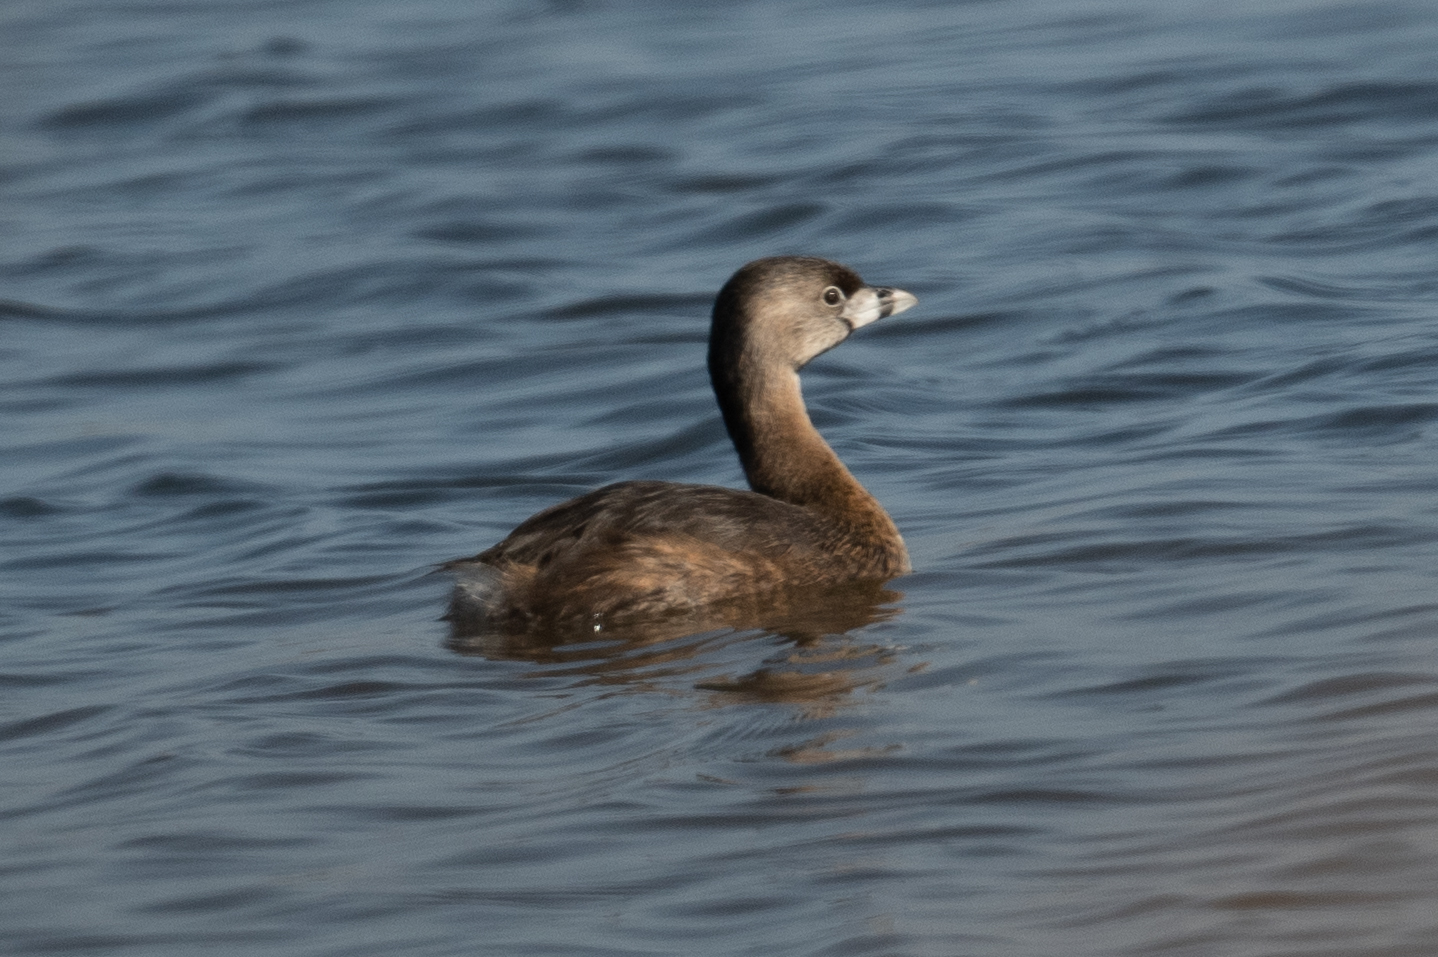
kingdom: Animalia
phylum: Chordata
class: Aves
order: Podicipediformes
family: Podicipedidae
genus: Podilymbus
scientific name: Podilymbus podiceps
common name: Pied-billed grebe
